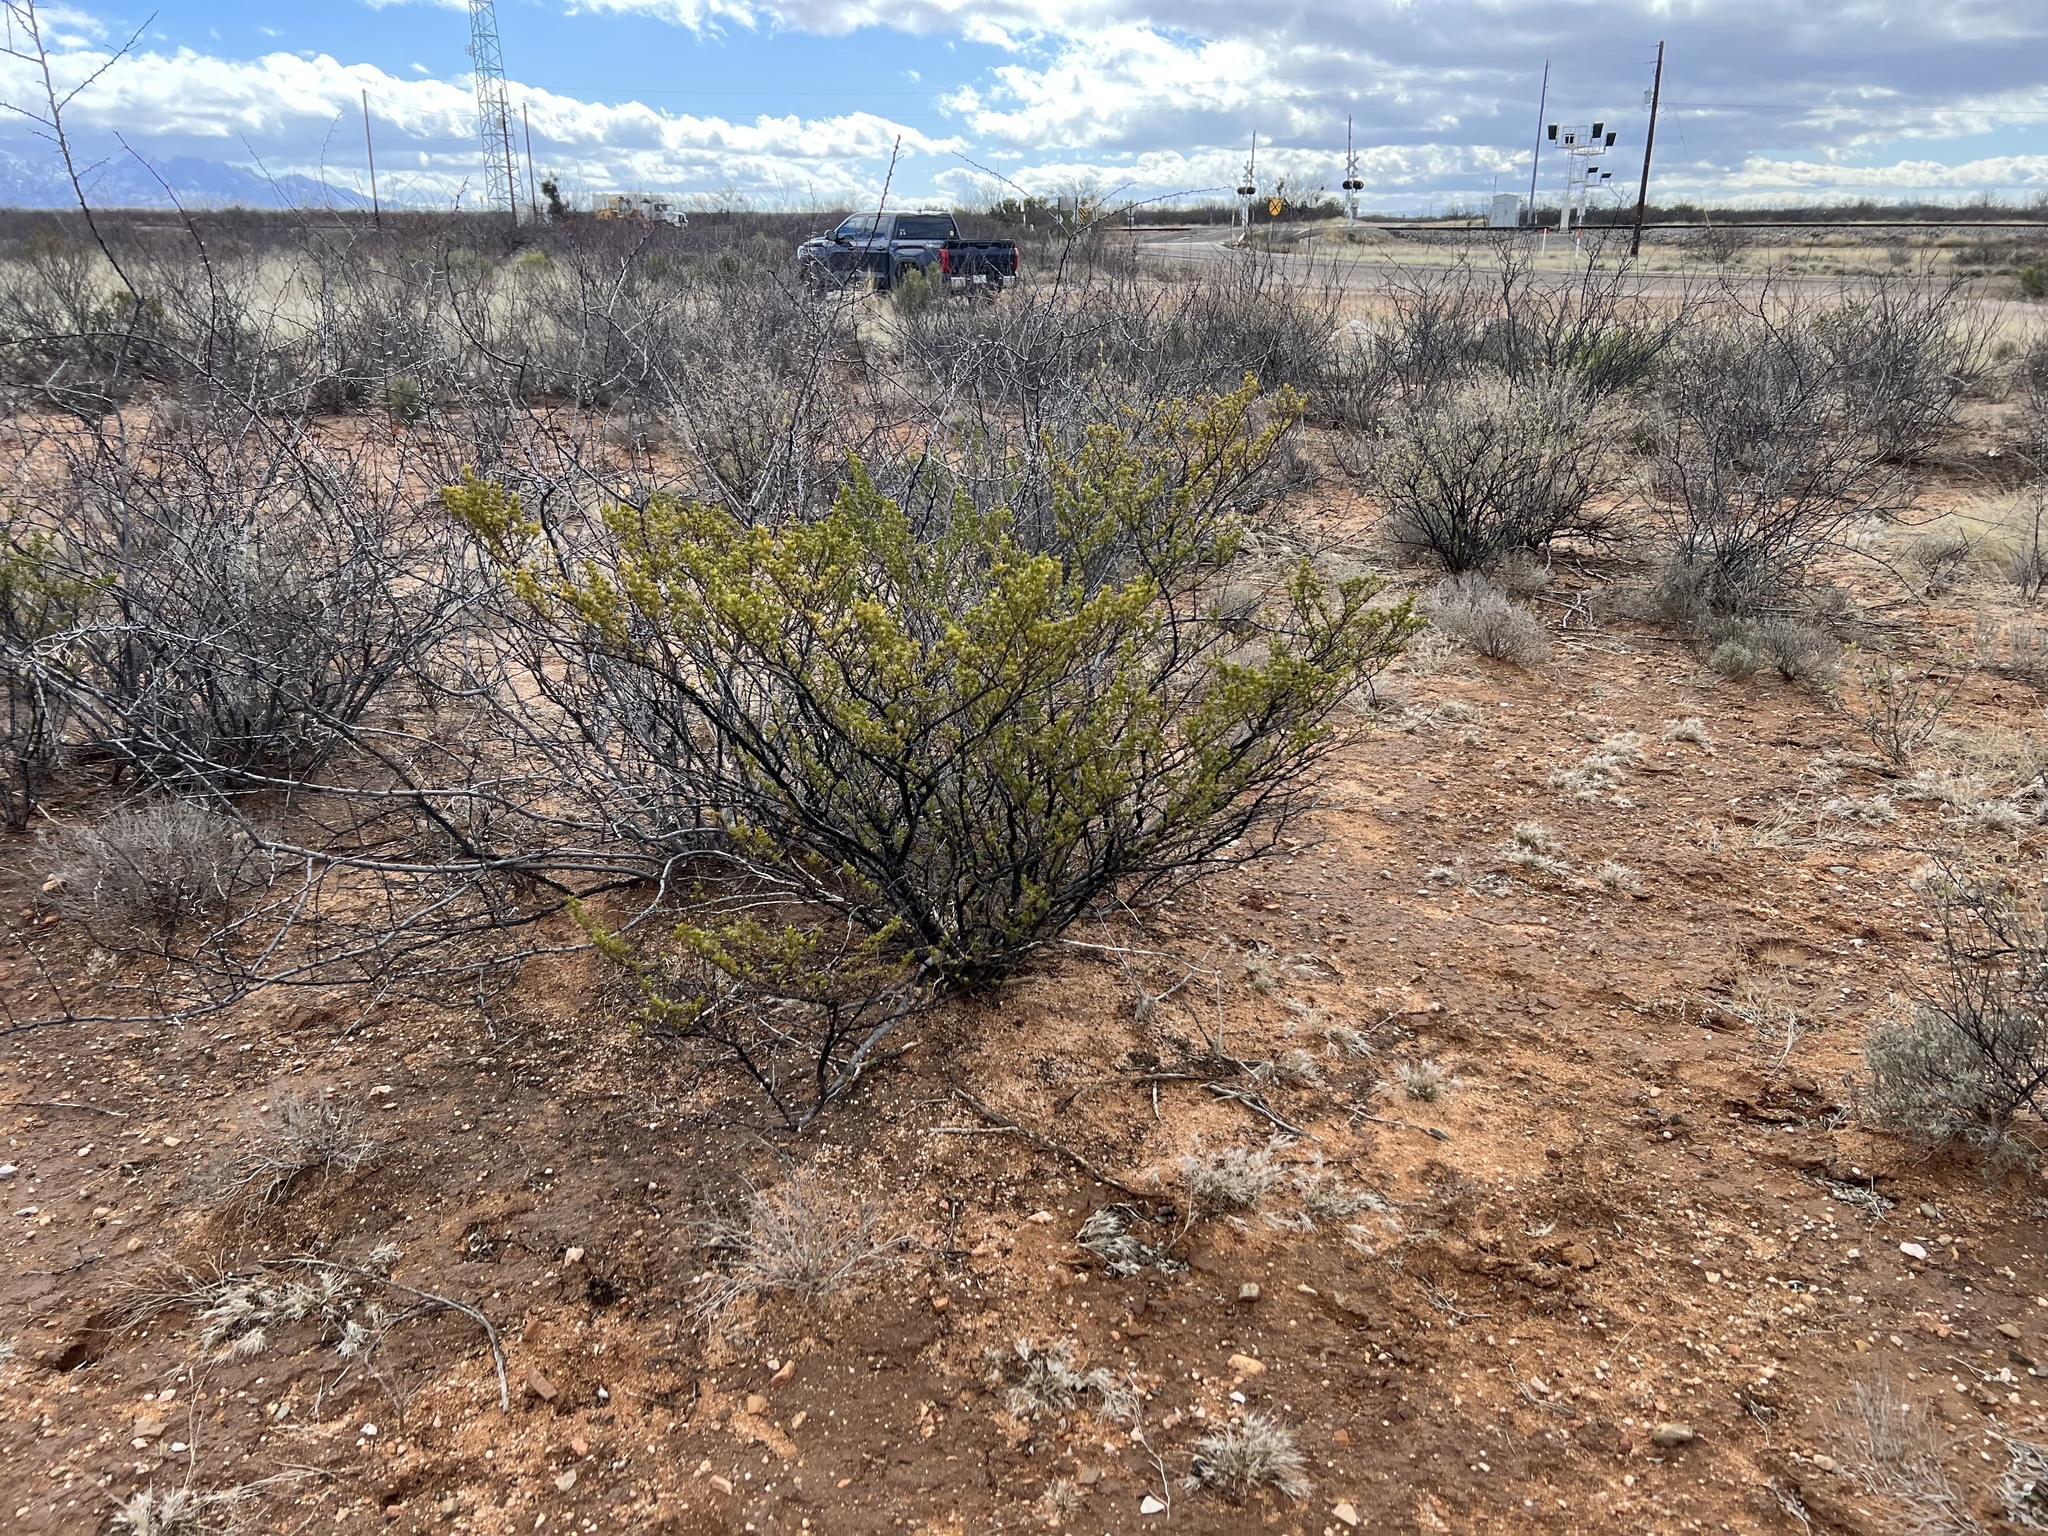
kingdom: Plantae
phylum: Tracheophyta
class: Magnoliopsida
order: Zygophyllales
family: Zygophyllaceae
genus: Larrea
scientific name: Larrea tridentata
